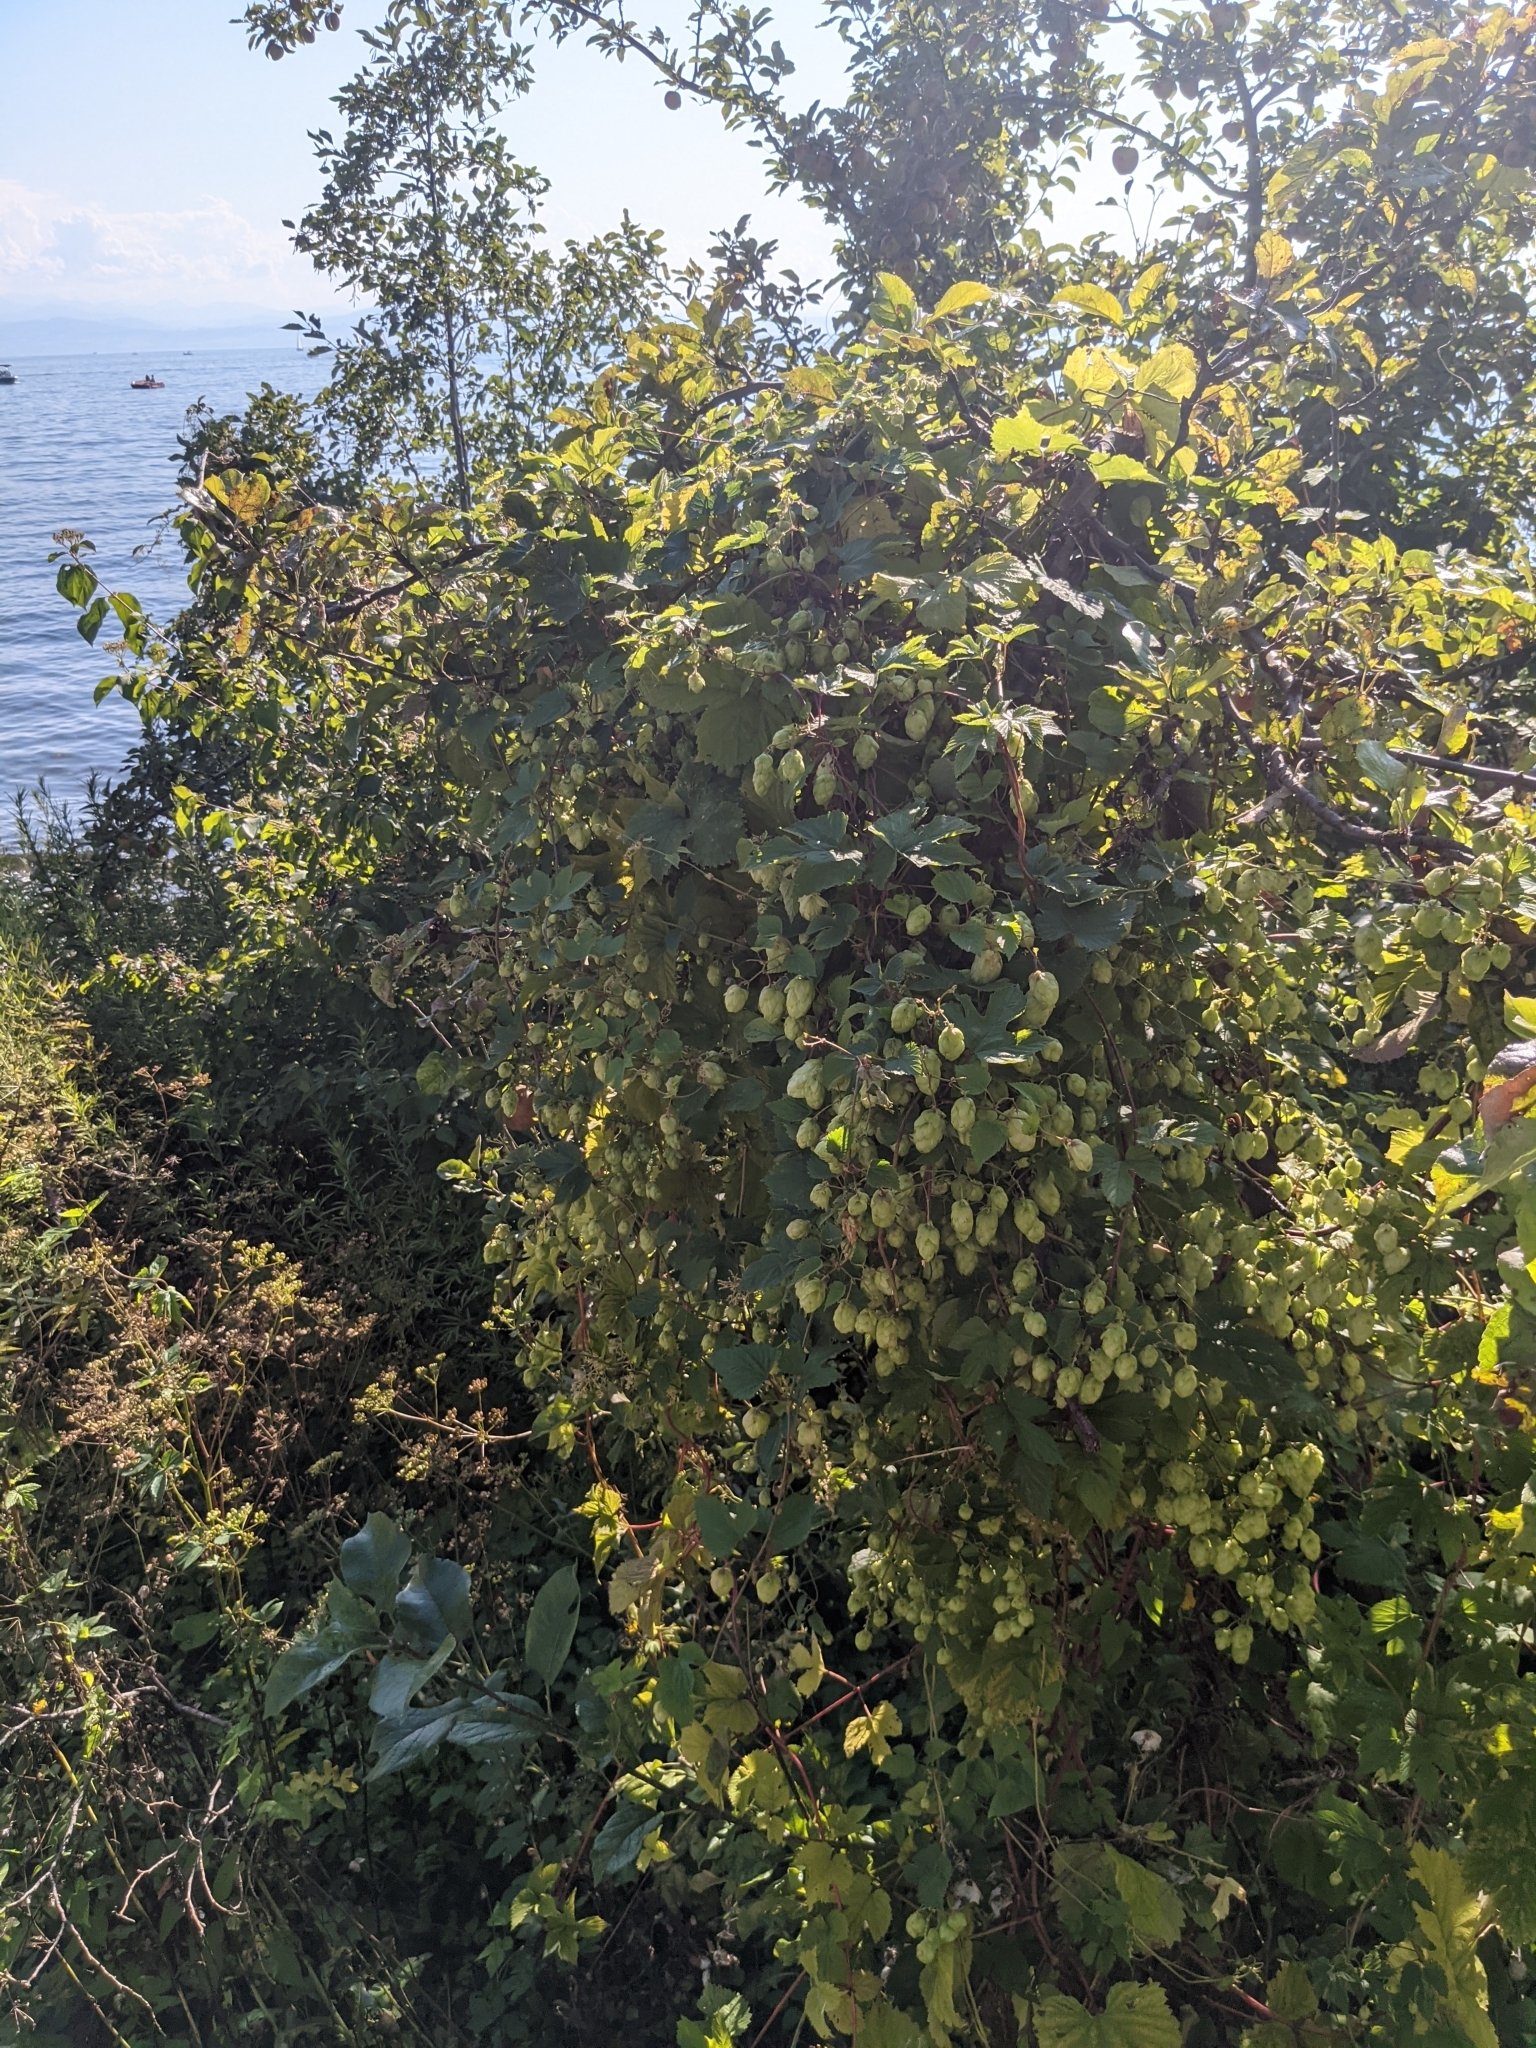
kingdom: Plantae
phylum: Tracheophyta
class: Magnoliopsida
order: Rosales
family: Cannabaceae
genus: Humulus
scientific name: Humulus lupulus
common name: Hop
